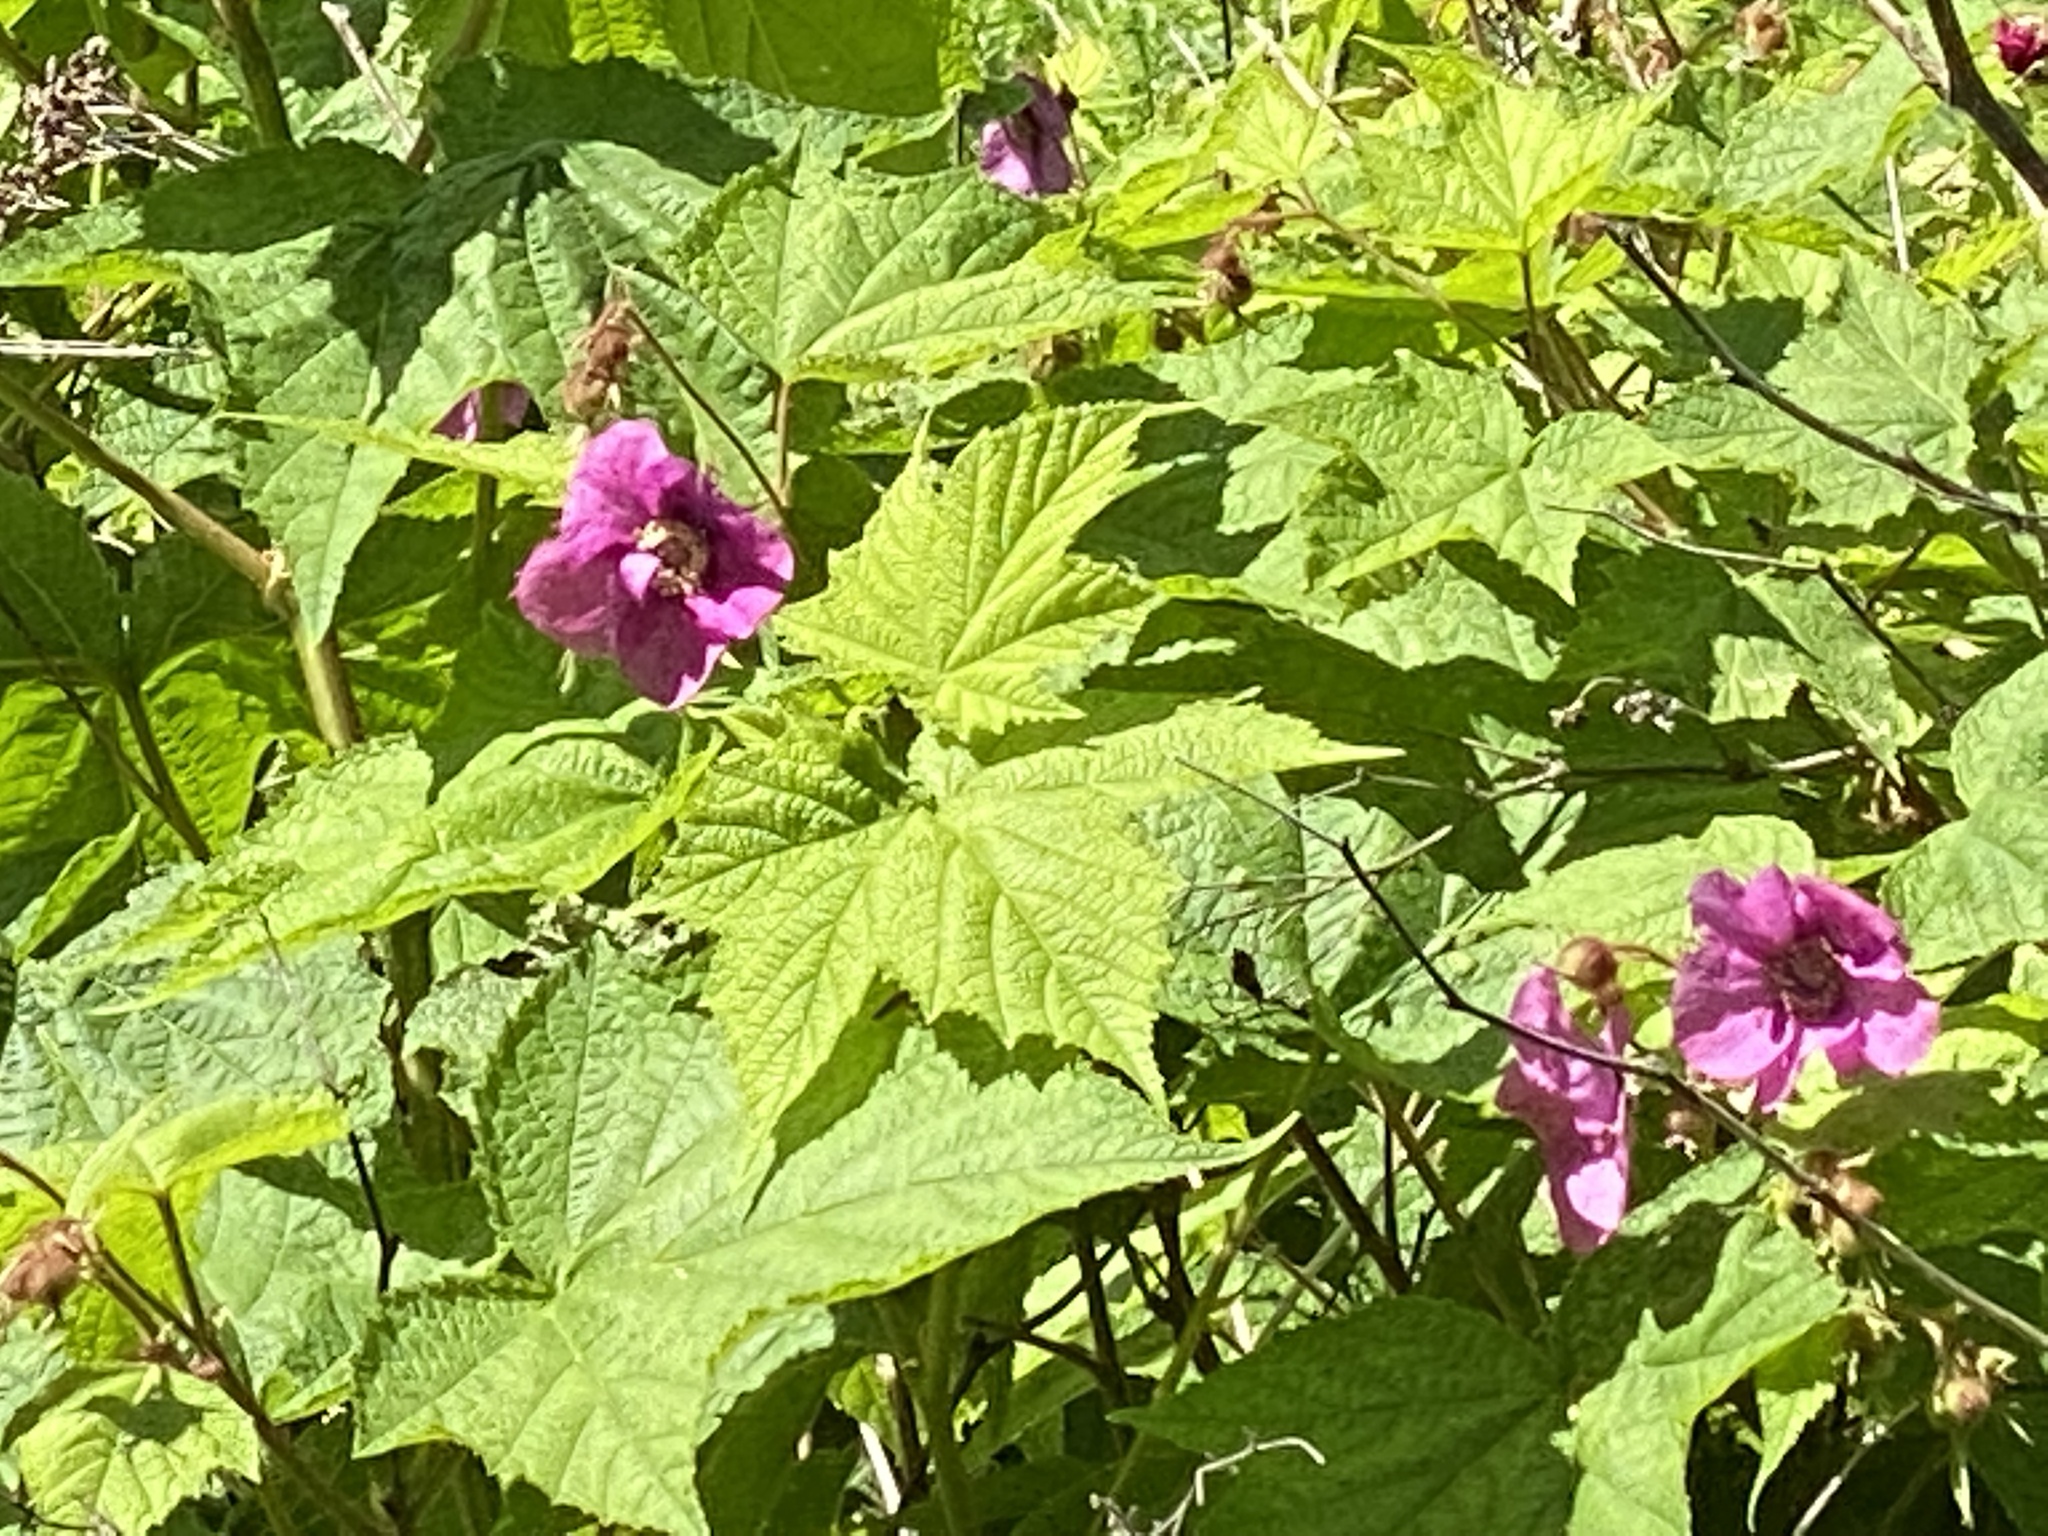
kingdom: Plantae
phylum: Tracheophyta
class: Magnoliopsida
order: Rosales
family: Rosaceae
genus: Rubus
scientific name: Rubus odoratus
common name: Purple-flowered raspberry
